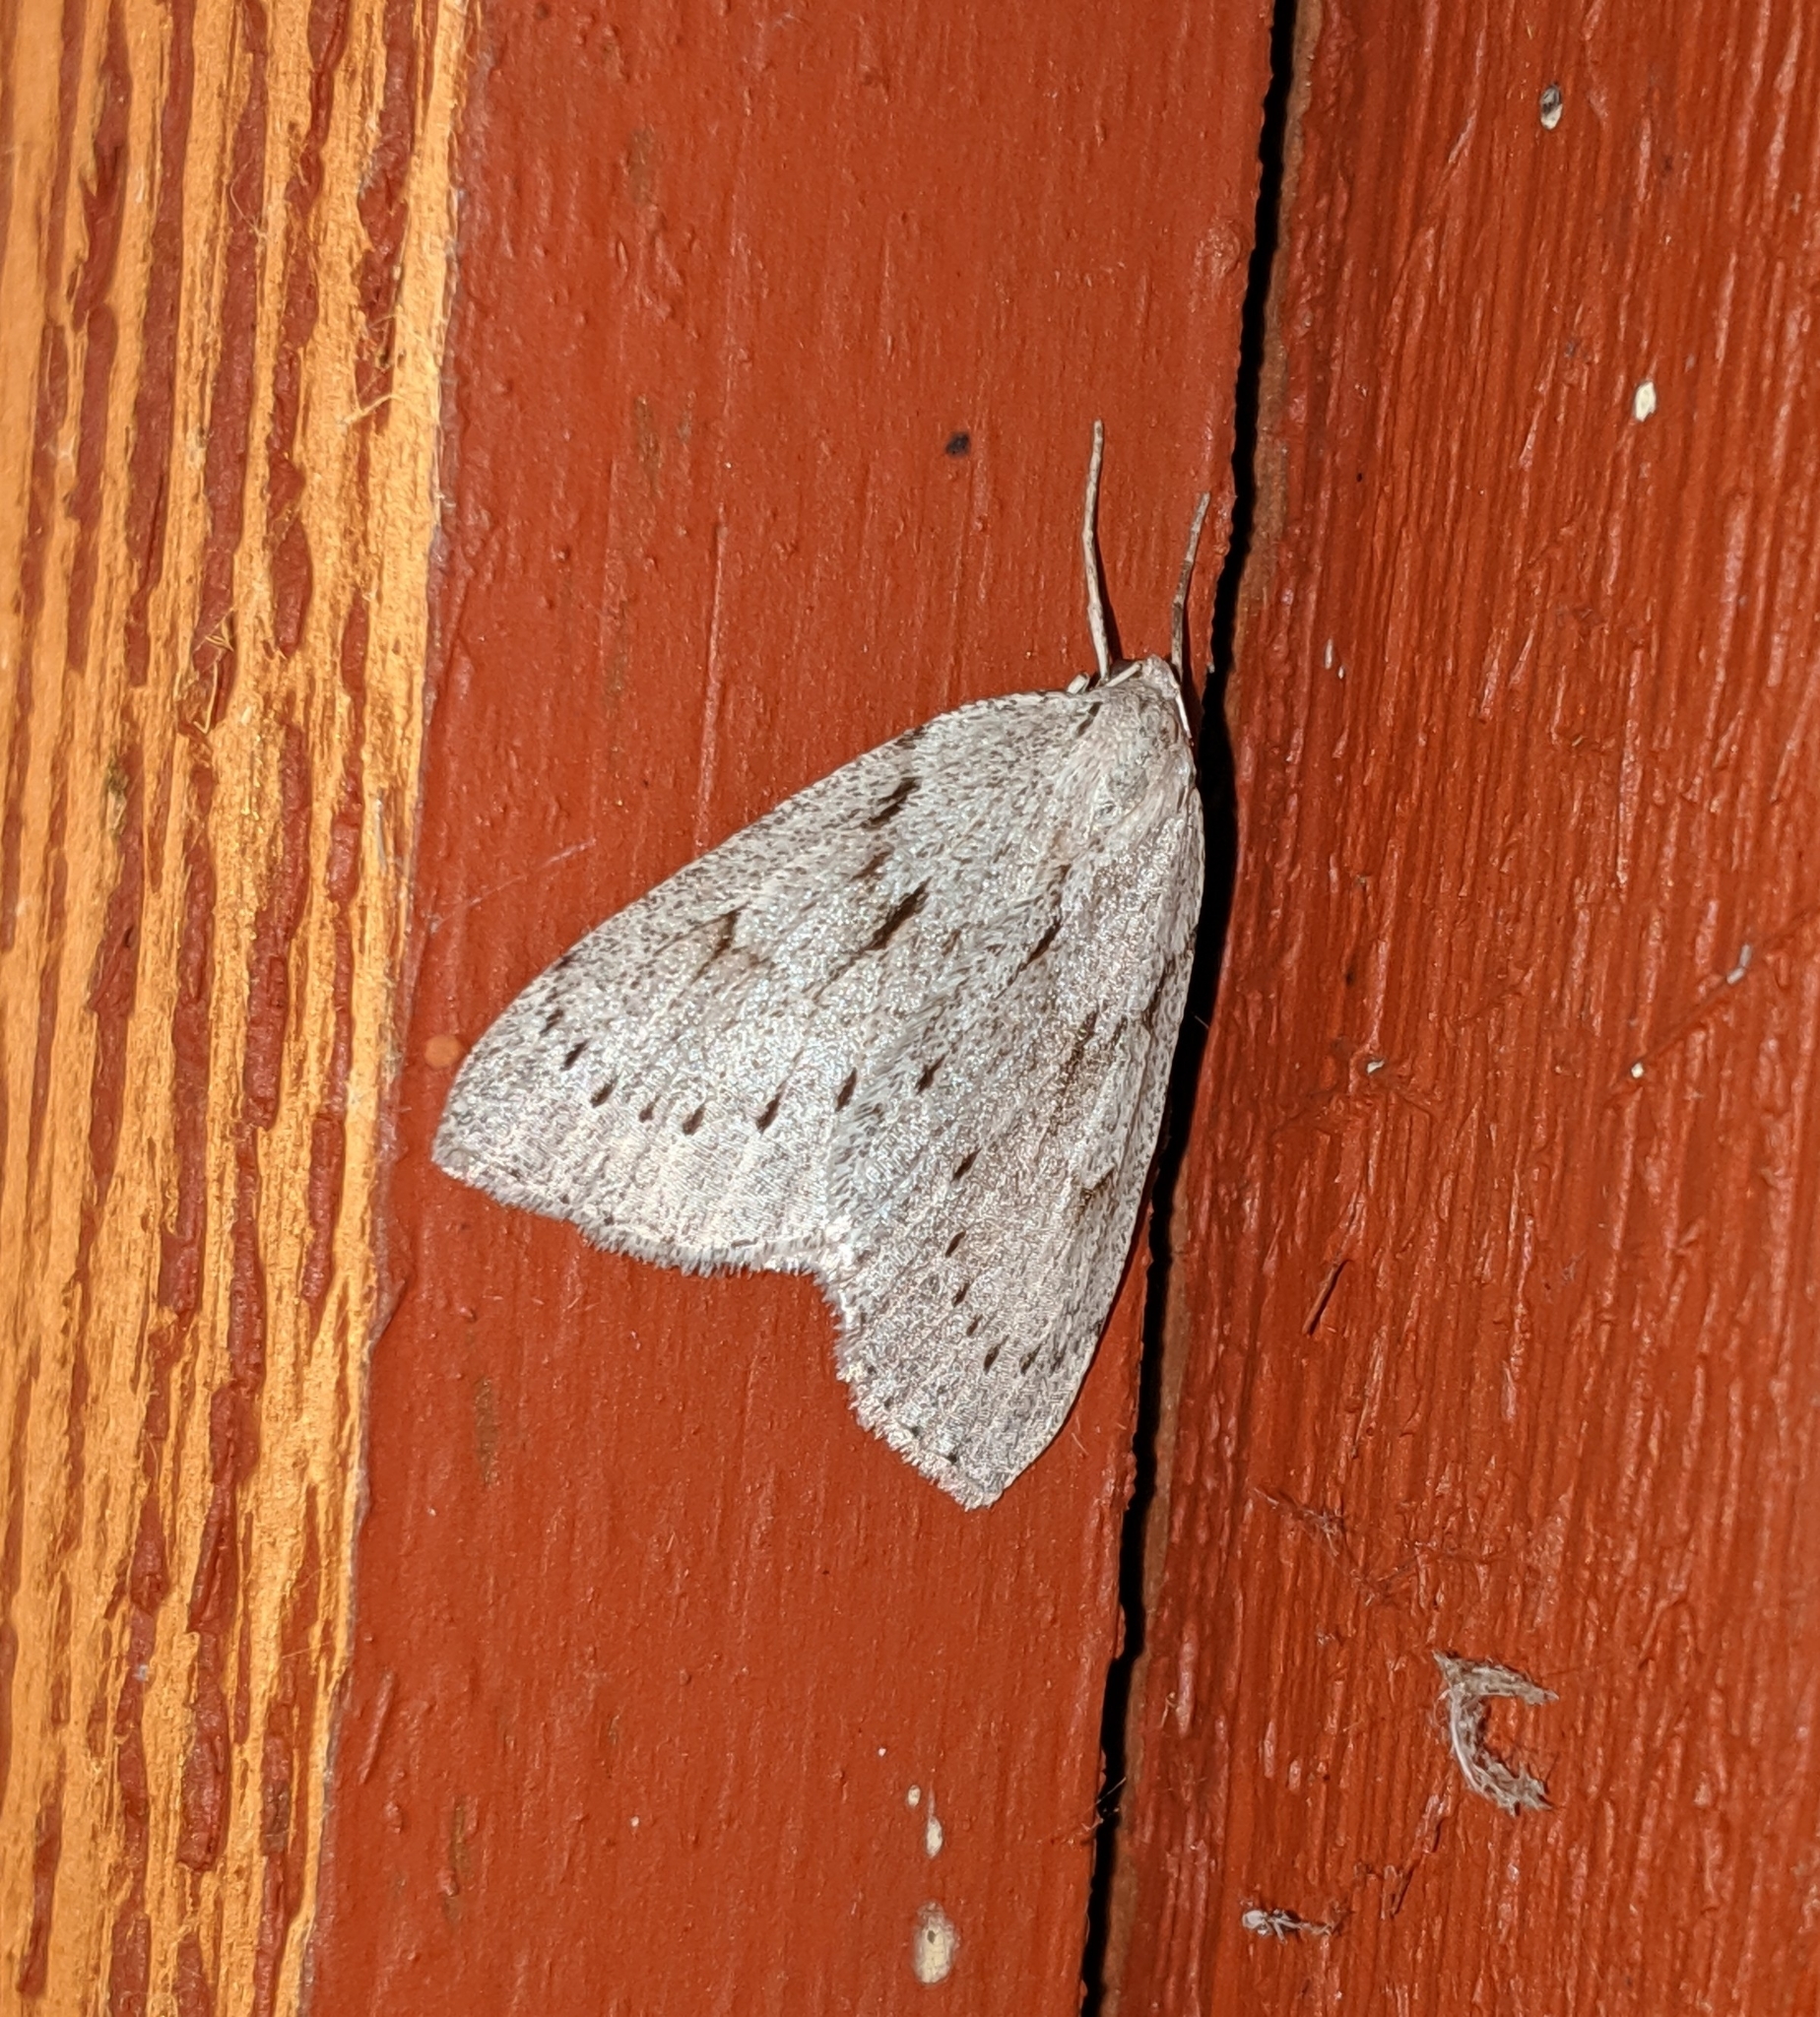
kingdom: Animalia
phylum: Arthropoda
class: Insecta
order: Lepidoptera
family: Geometridae
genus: Philedia
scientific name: Philedia punctomacularia
